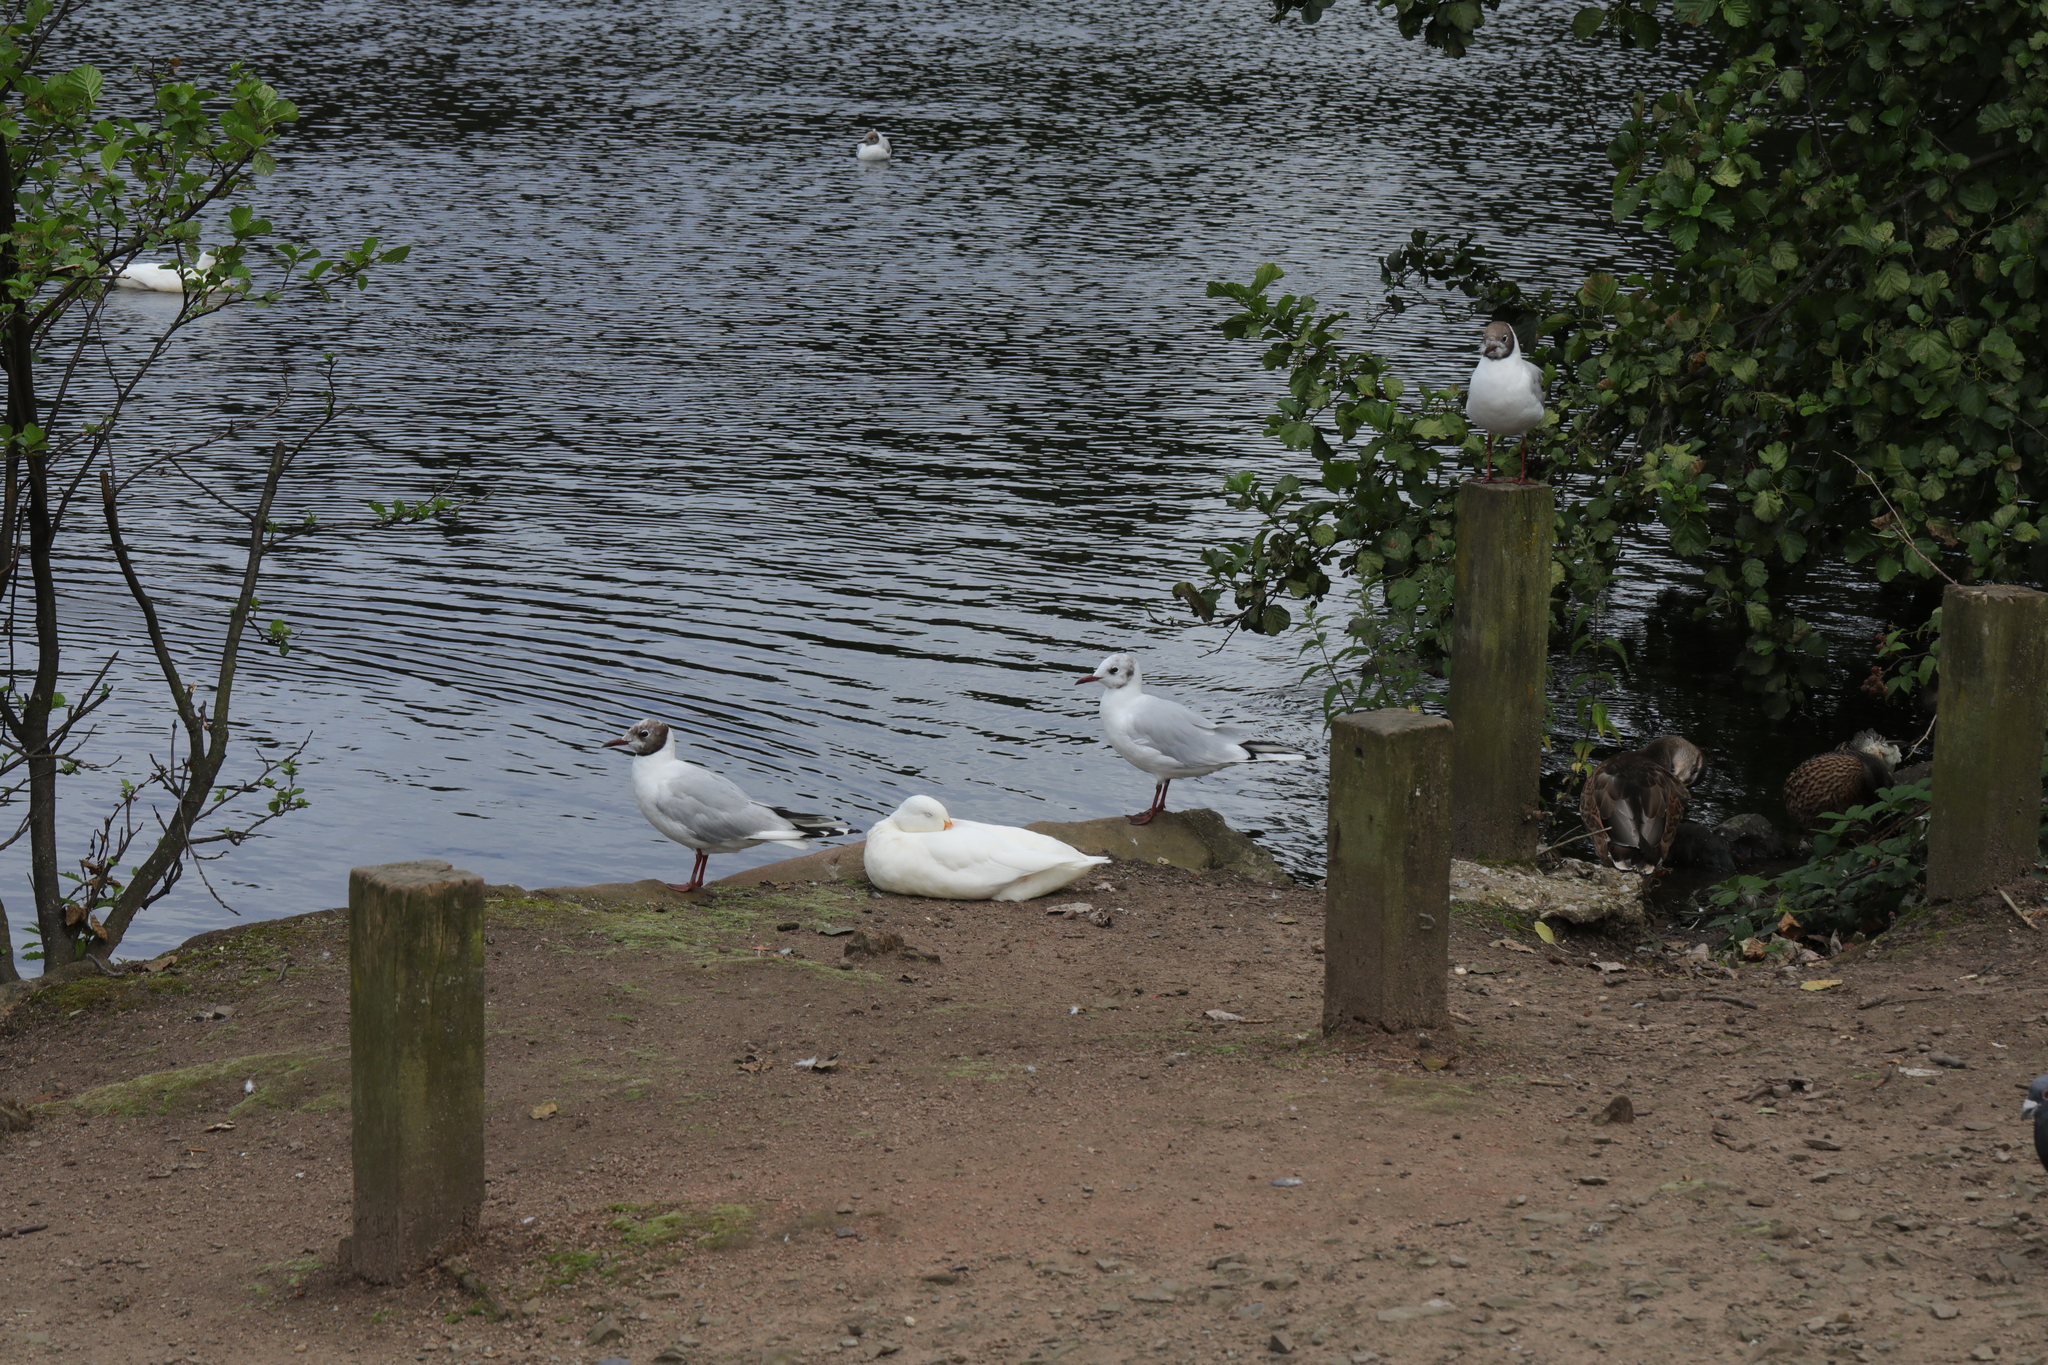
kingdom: Animalia
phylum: Chordata
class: Aves
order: Charadriiformes
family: Laridae
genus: Chroicocephalus
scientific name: Chroicocephalus ridibundus
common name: Black-headed gull
